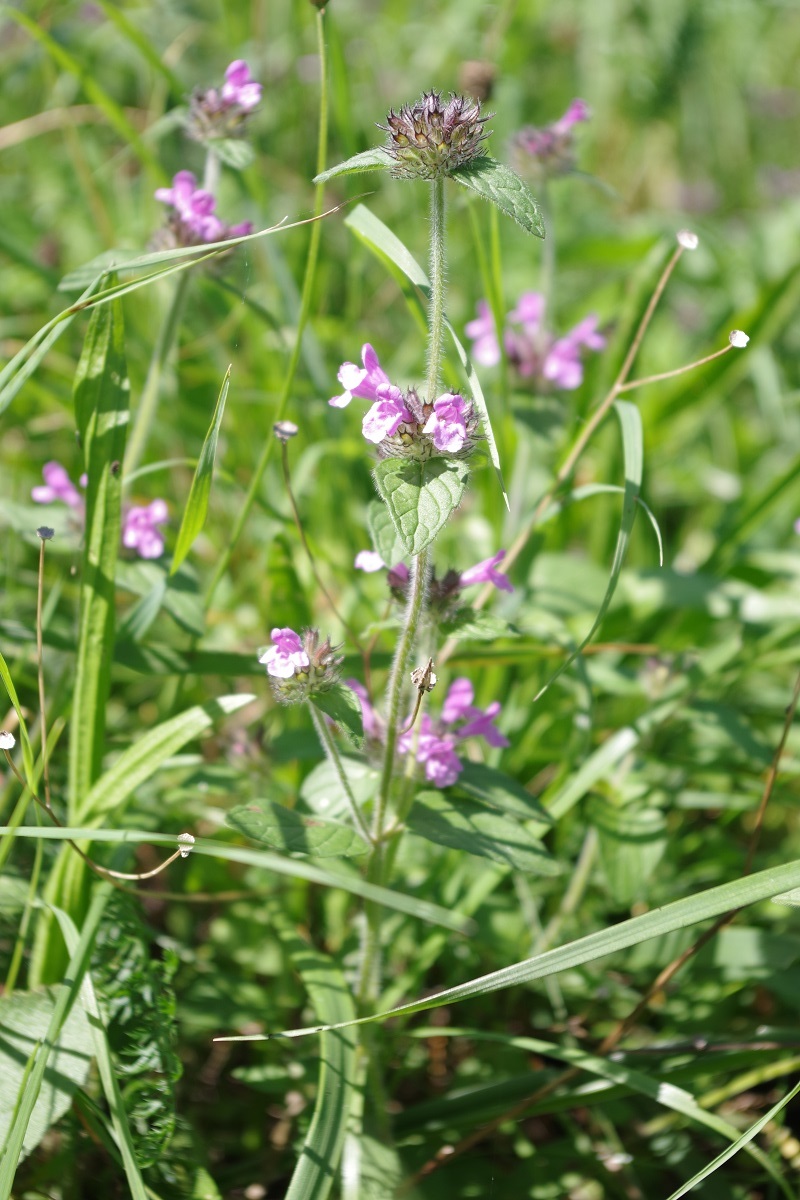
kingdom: Plantae
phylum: Tracheophyta
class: Magnoliopsida
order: Lamiales
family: Lamiaceae
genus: Clinopodium
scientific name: Clinopodium vulgare
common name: Wild basil
